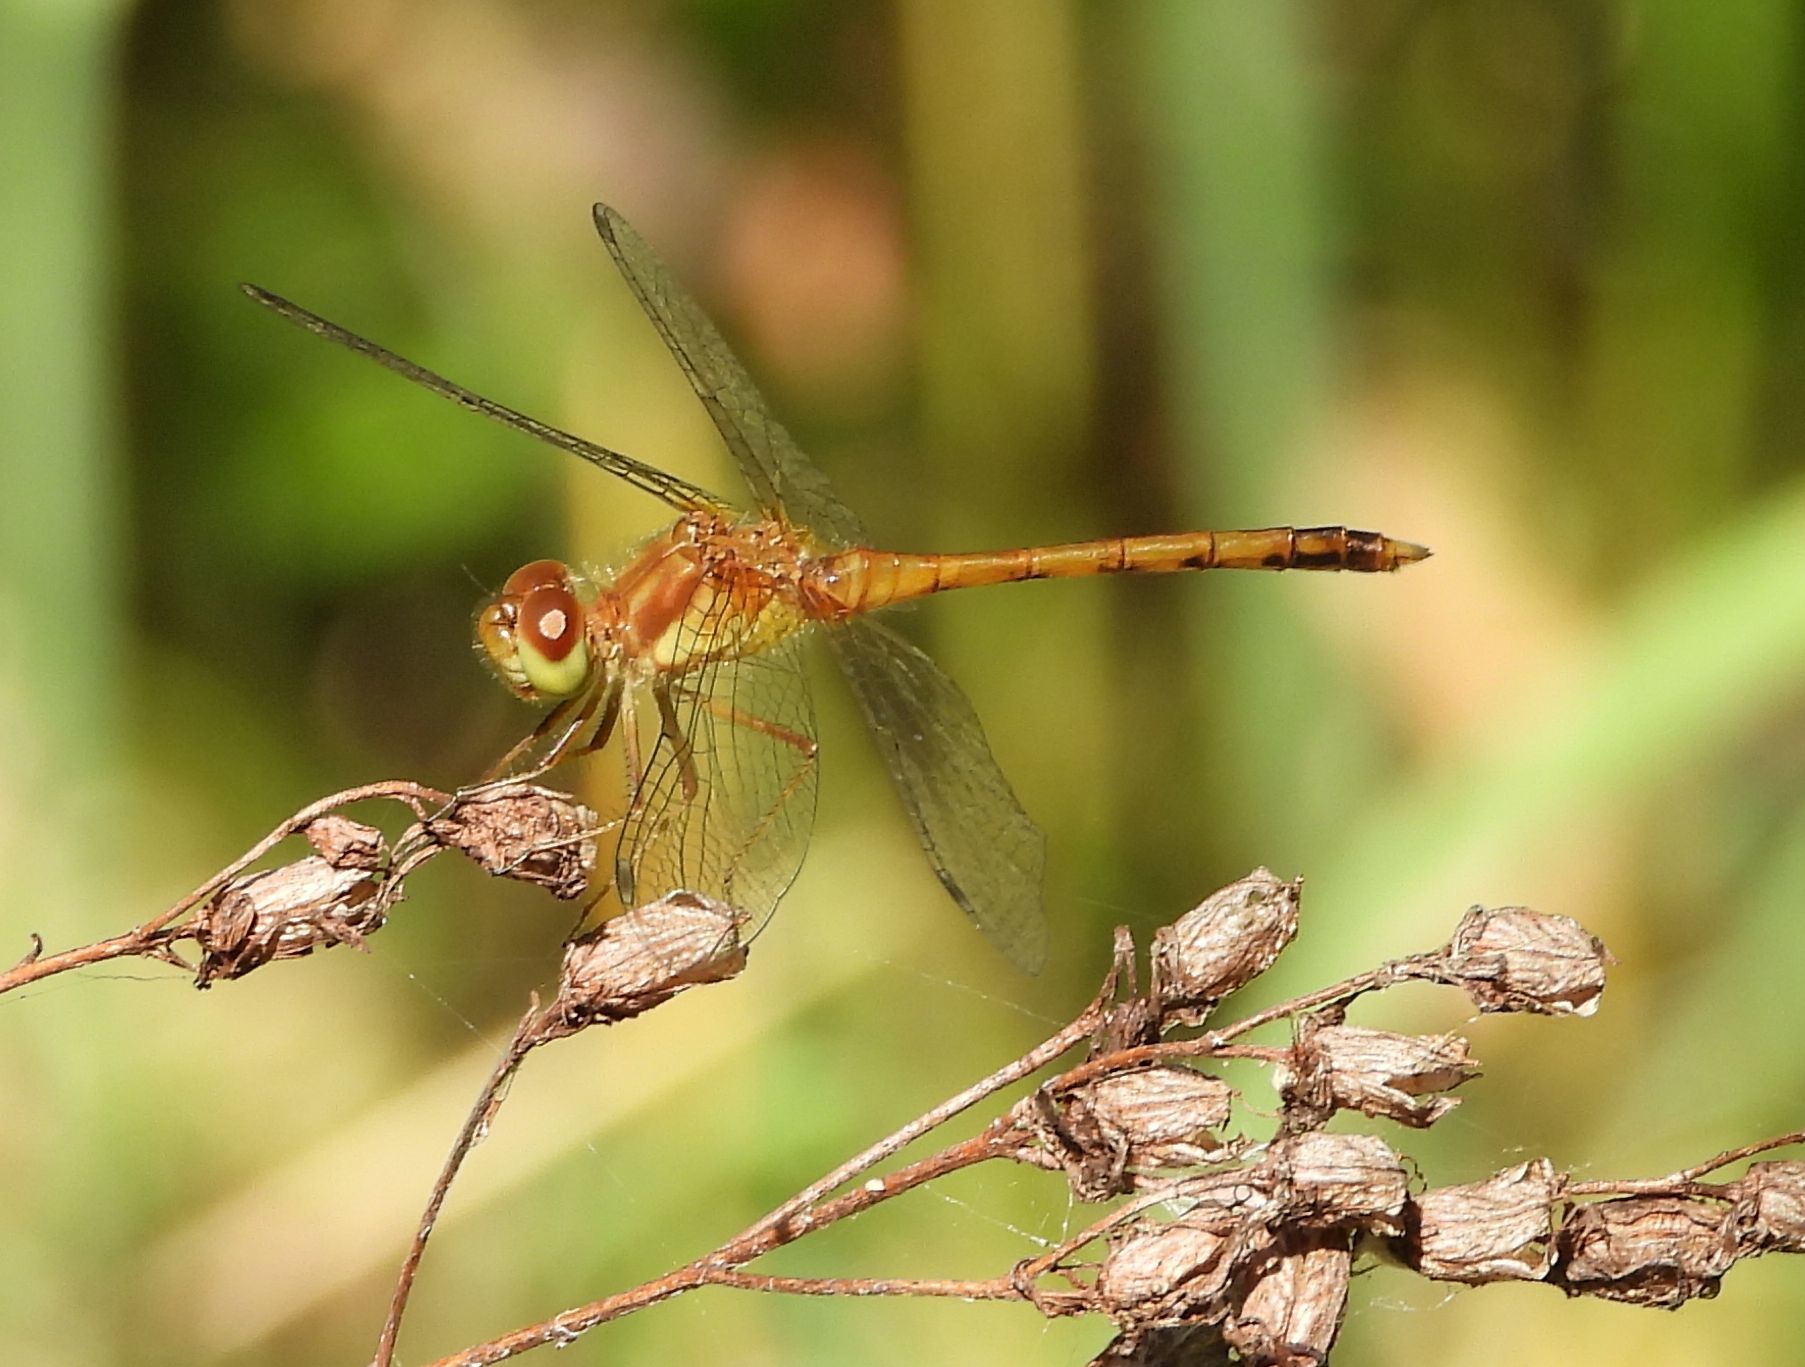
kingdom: Animalia
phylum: Arthropoda
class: Insecta
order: Odonata
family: Libellulidae
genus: Sympetrum
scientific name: Sympetrum vicinum
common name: Autumn meadowhawk
